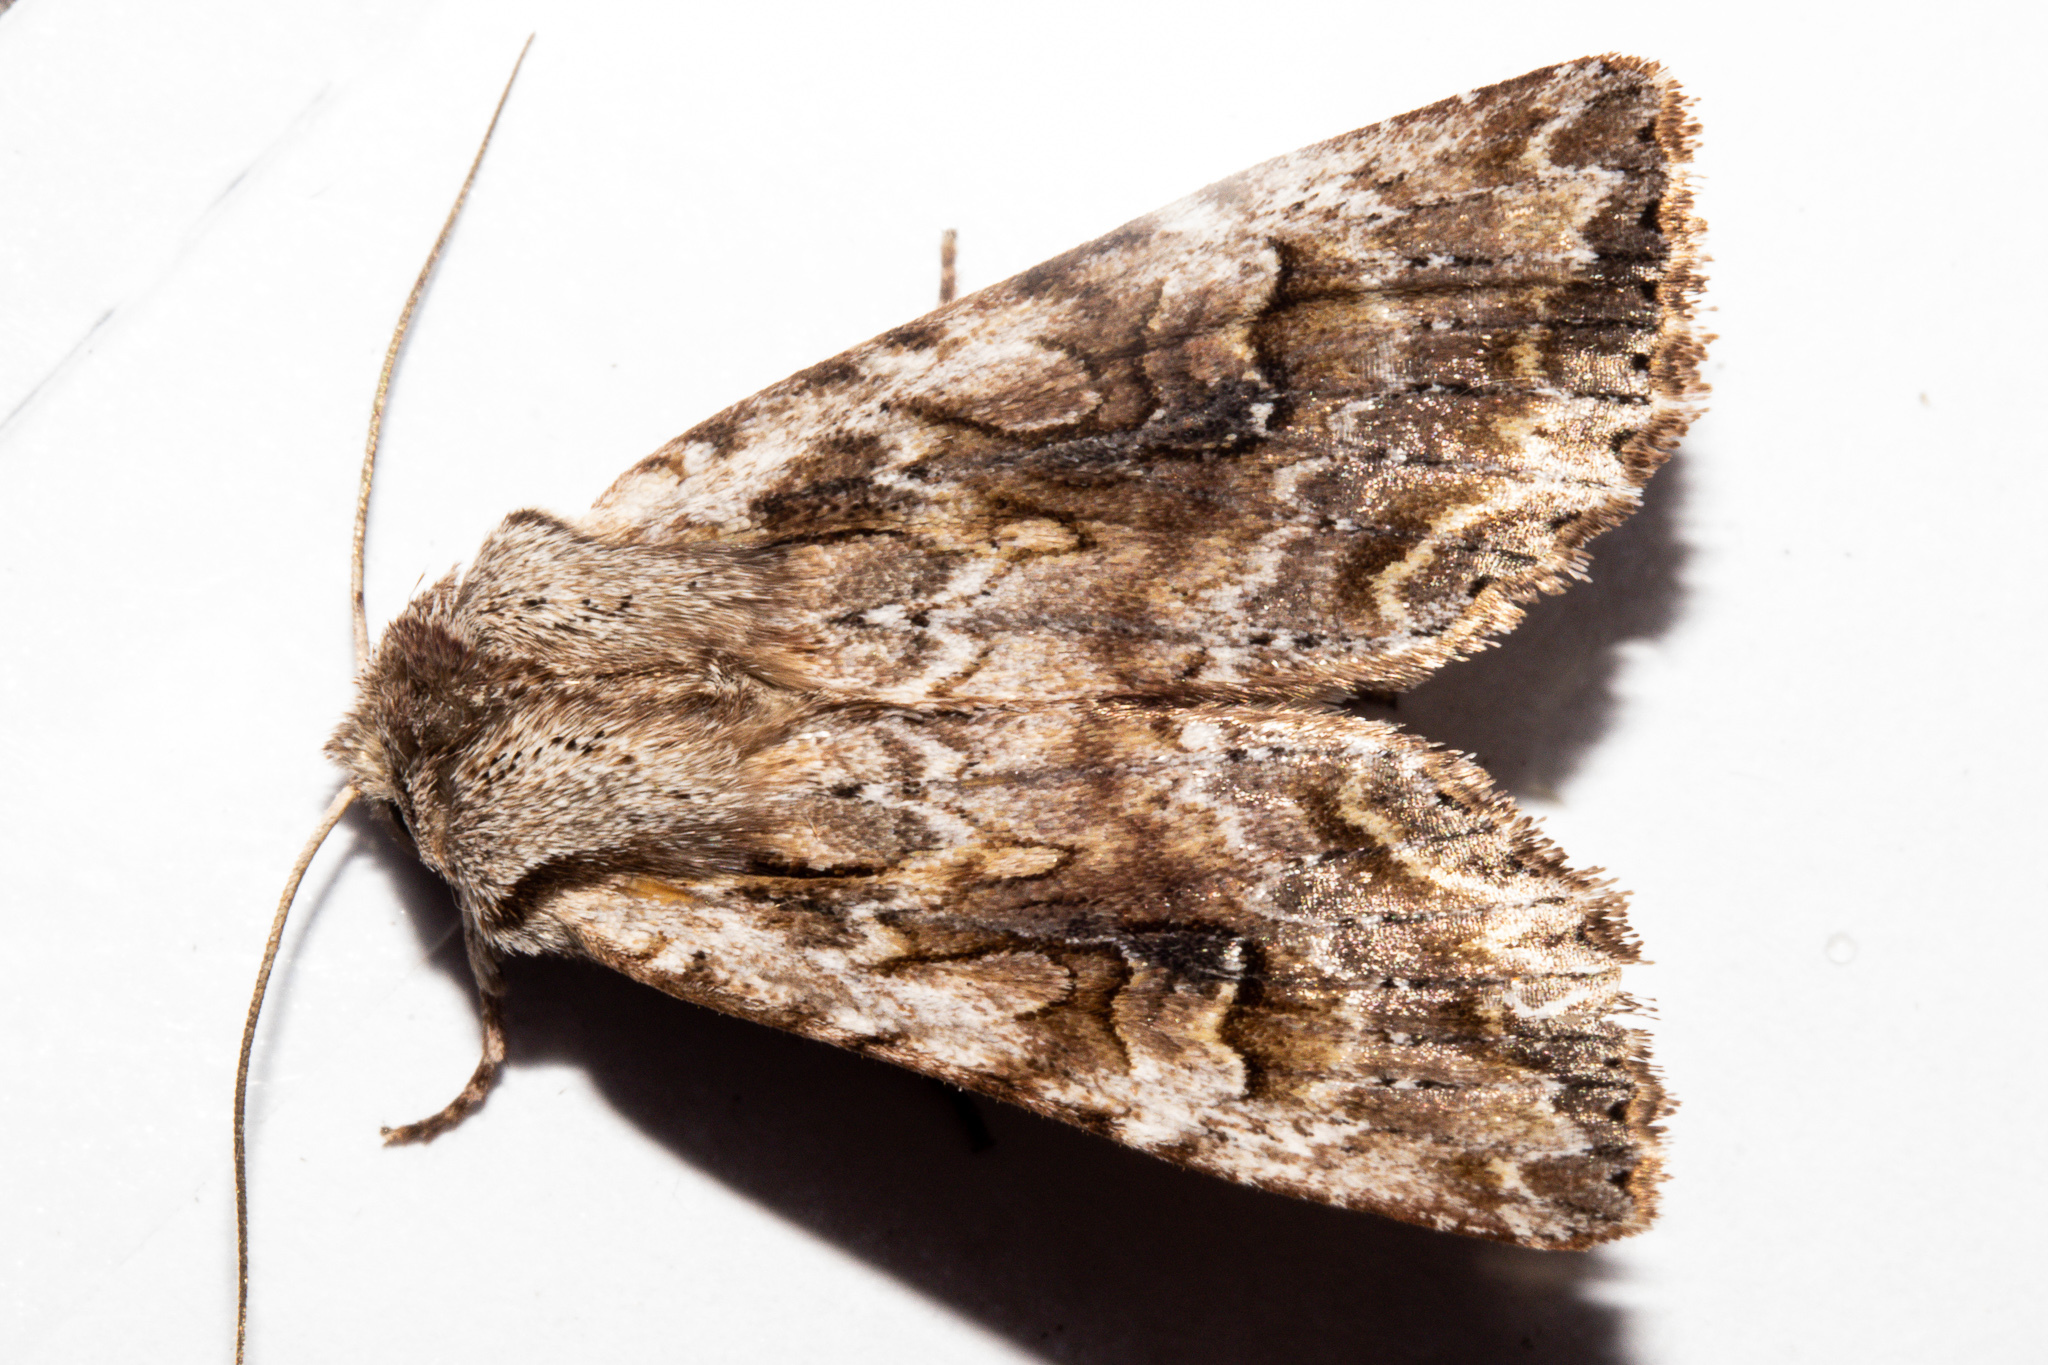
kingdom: Animalia
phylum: Arthropoda
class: Insecta
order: Lepidoptera
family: Noctuidae
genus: Ichneutica
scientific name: Ichneutica lindsayorum
